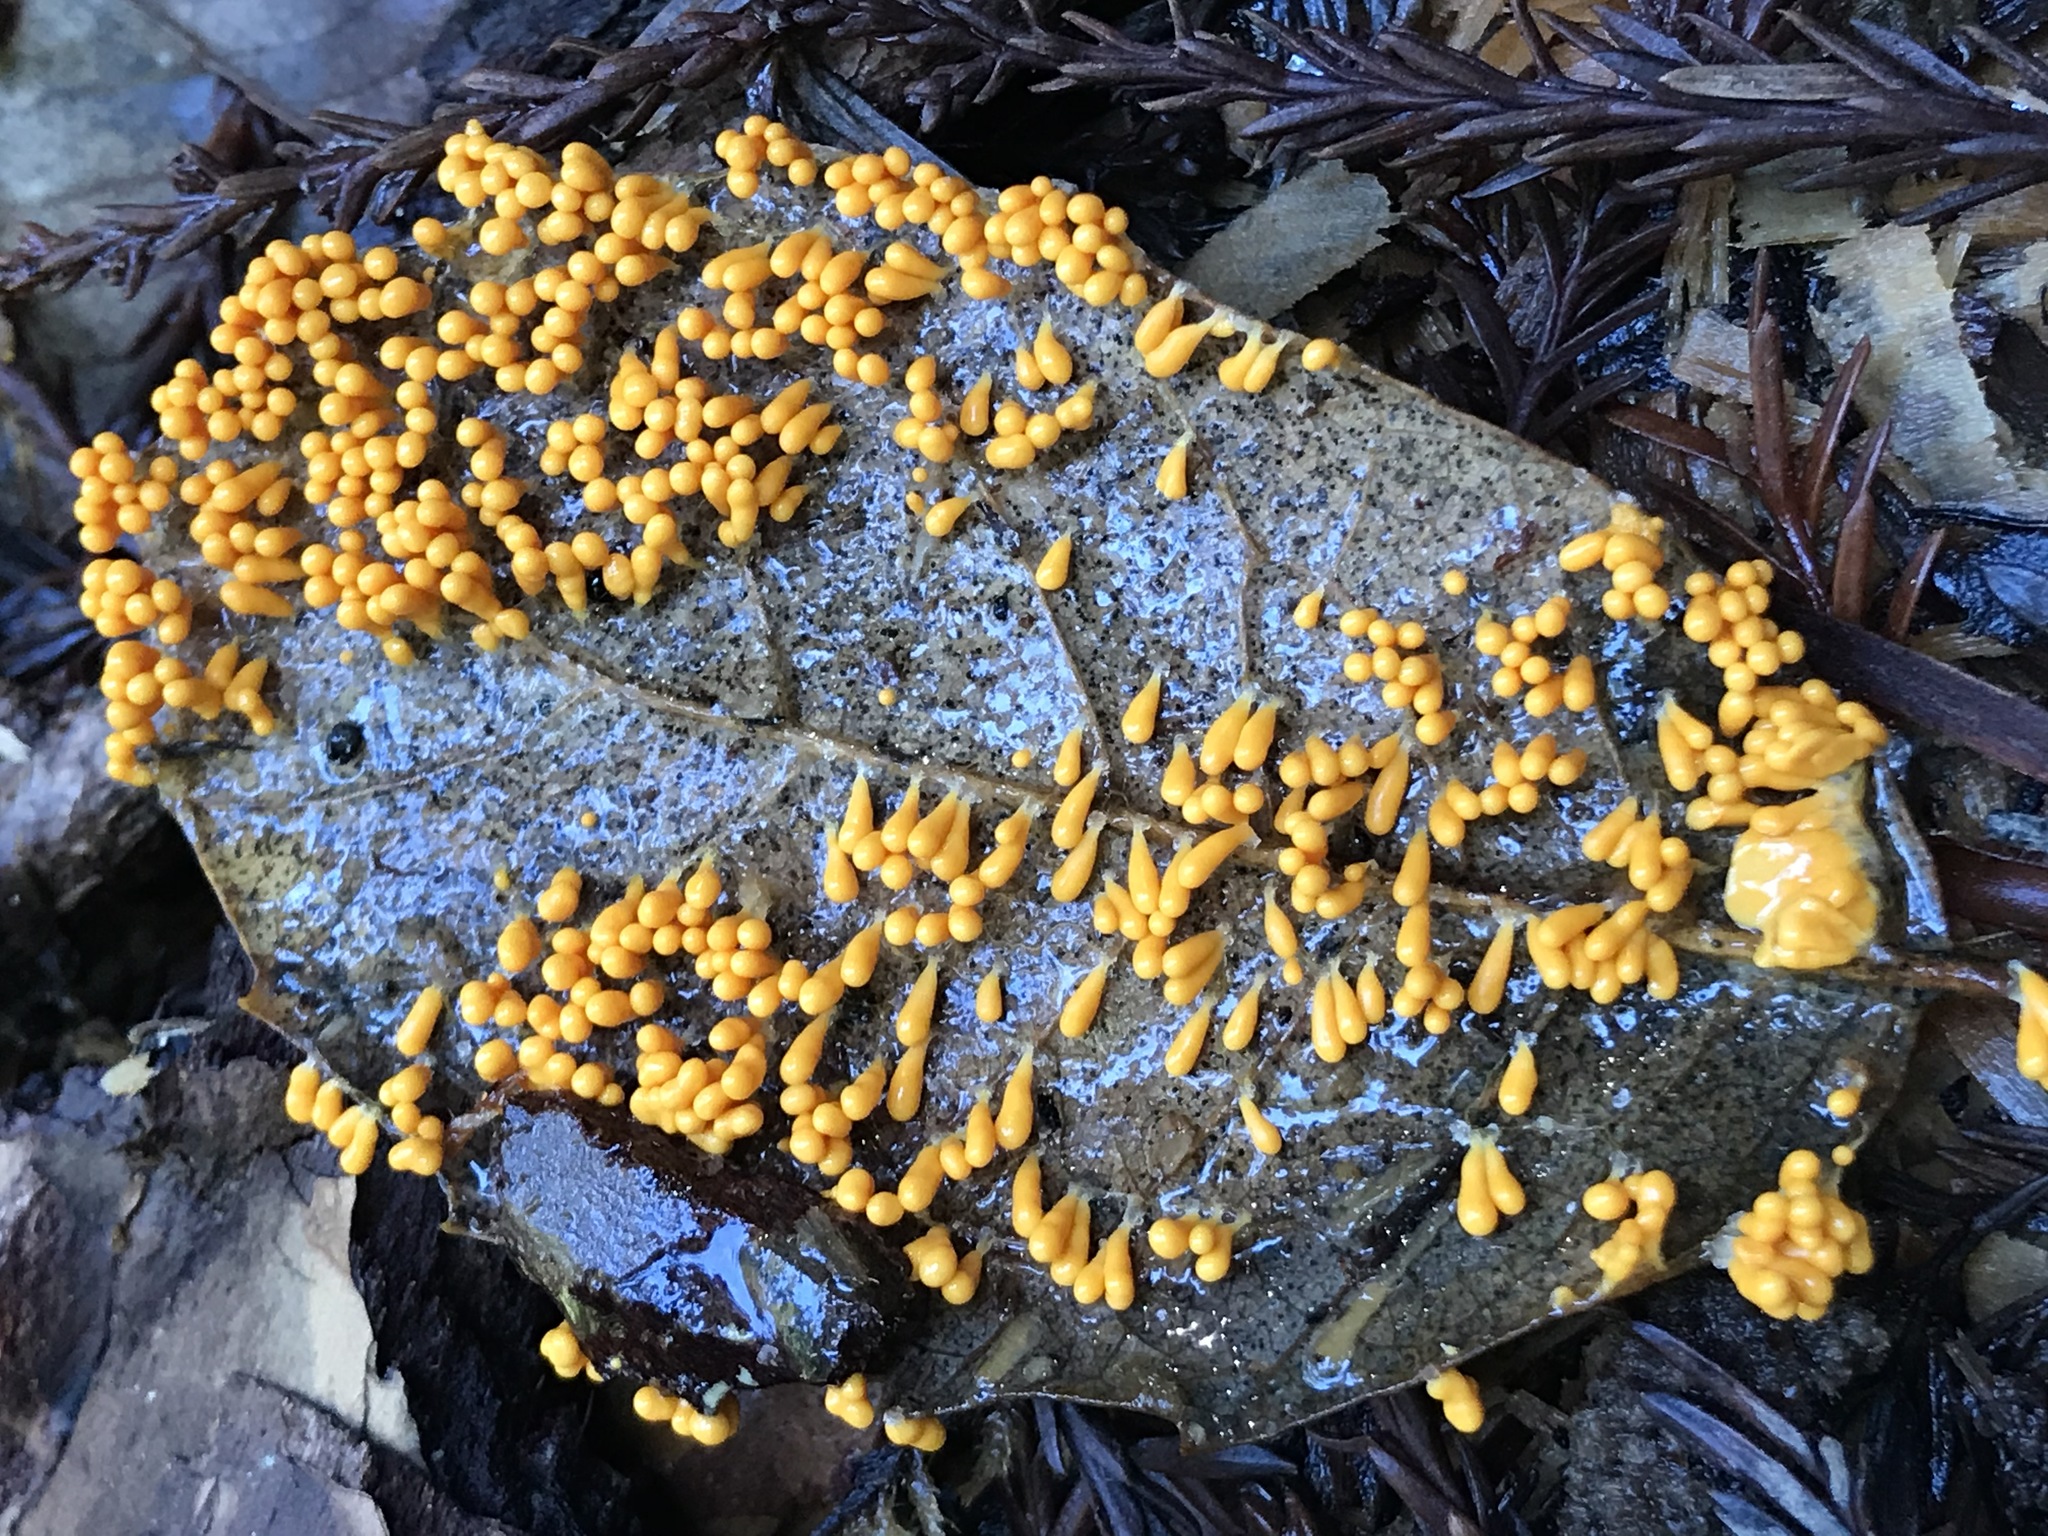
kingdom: Protozoa
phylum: Mycetozoa
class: Myxomycetes
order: Physarales
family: Physaraceae
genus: Leocarpus
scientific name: Leocarpus fragilis
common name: Insect-egg slime
